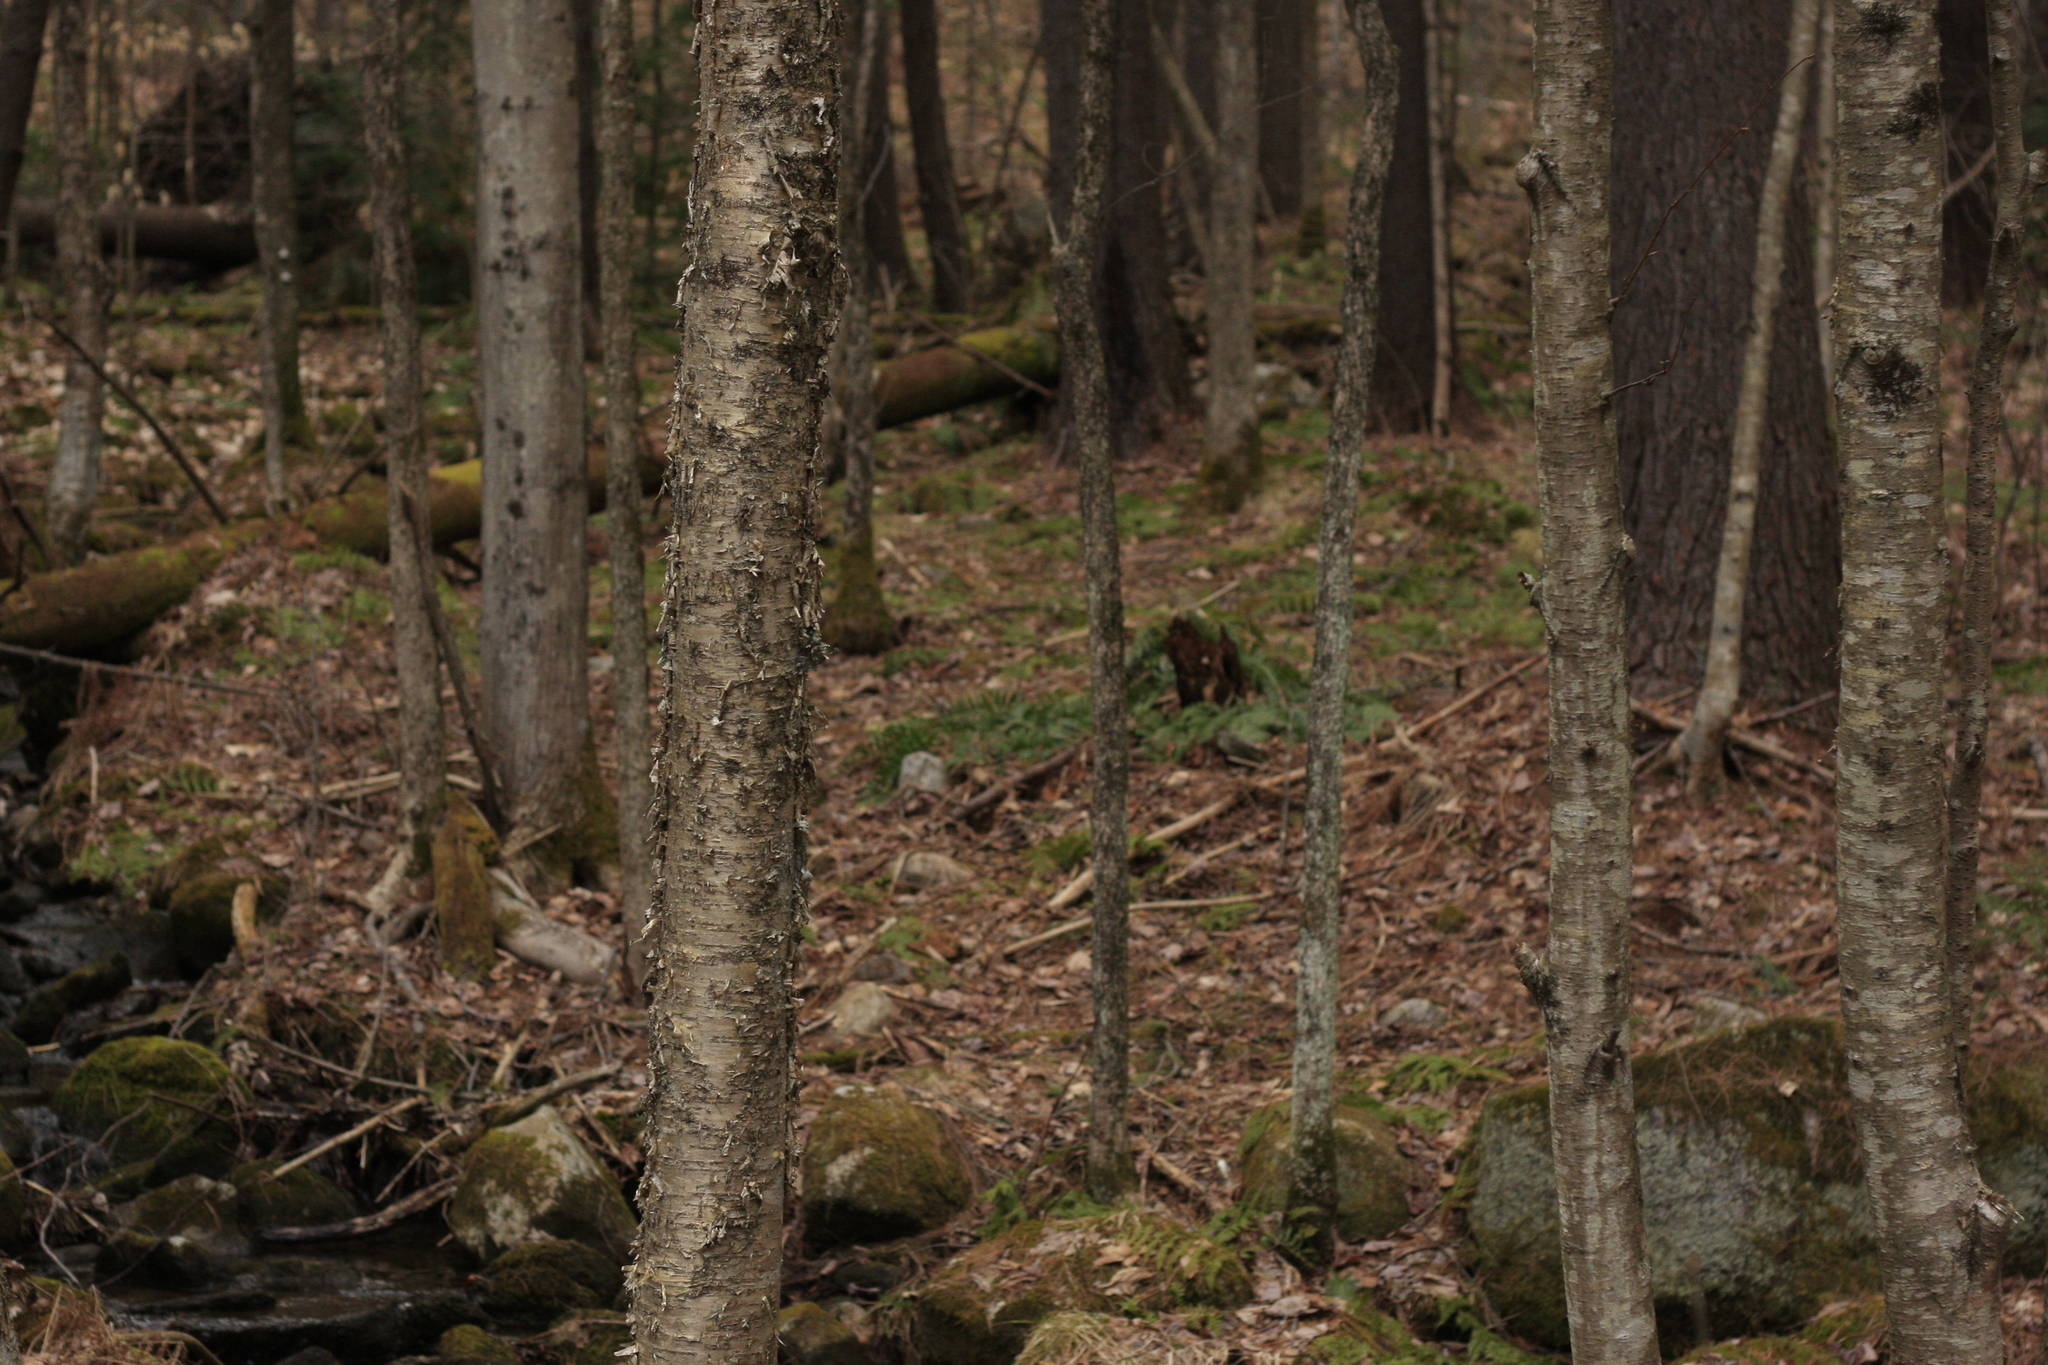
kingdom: Plantae
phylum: Tracheophyta
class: Magnoliopsida
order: Fagales
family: Betulaceae
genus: Betula
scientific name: Betula alleghaniensis
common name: Yellow birch
